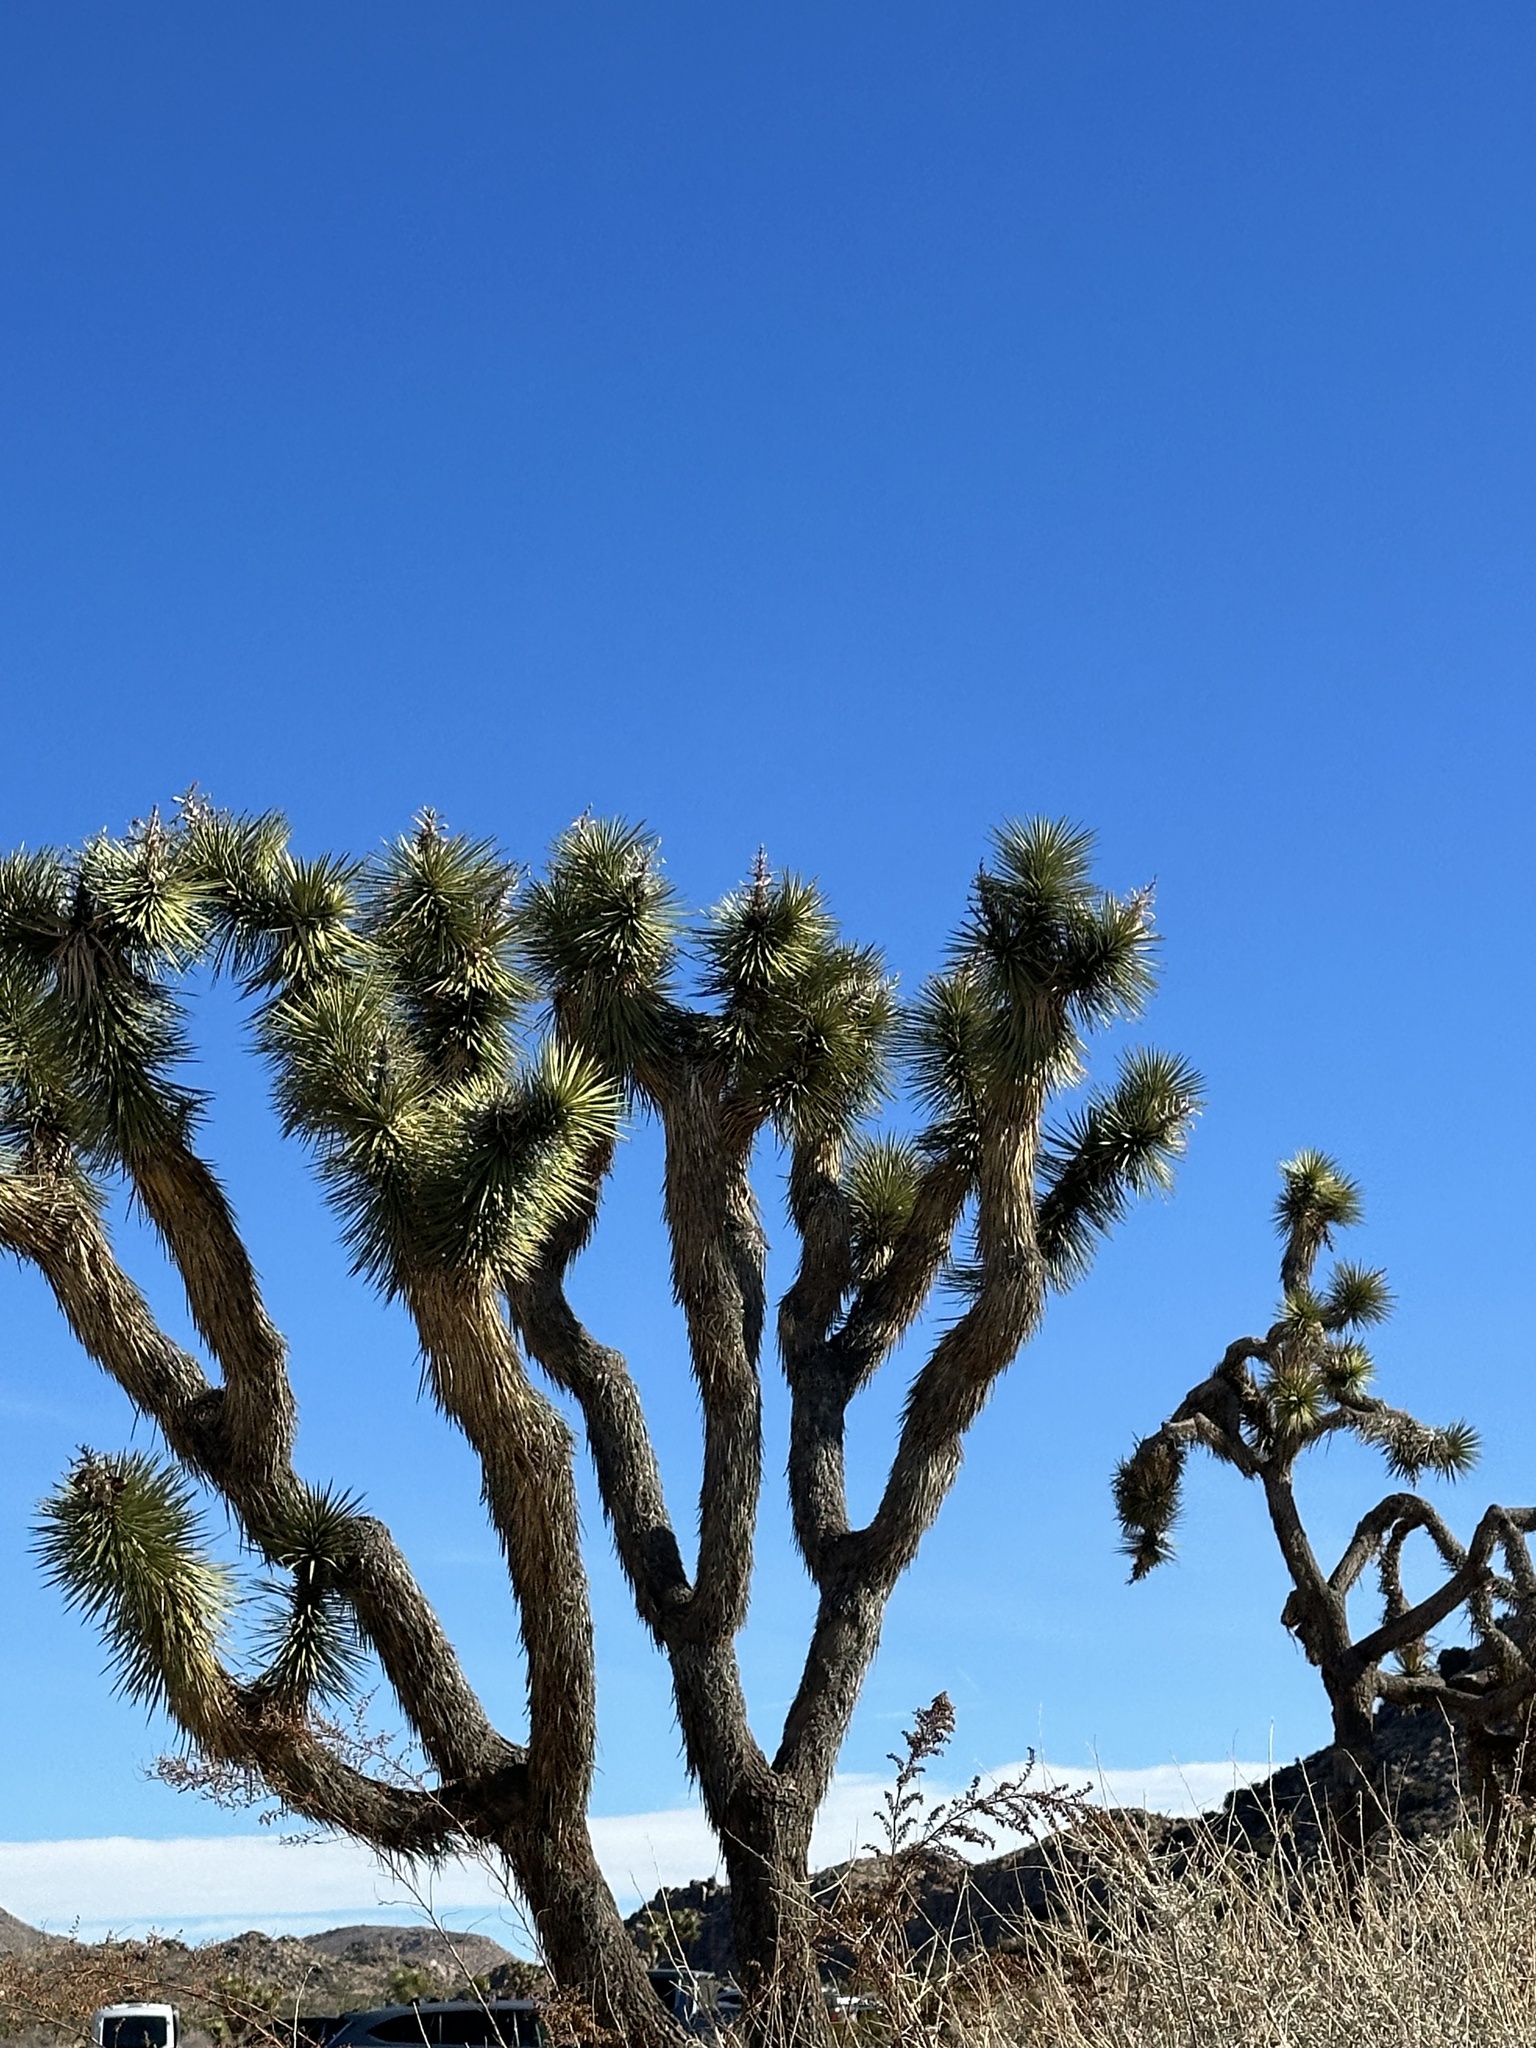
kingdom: Plantae
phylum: Tracheophyta
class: Liliopsida
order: Asparagales
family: Asparagaceae
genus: Yucca
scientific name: Yucca brevifolia
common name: Joshua tree
